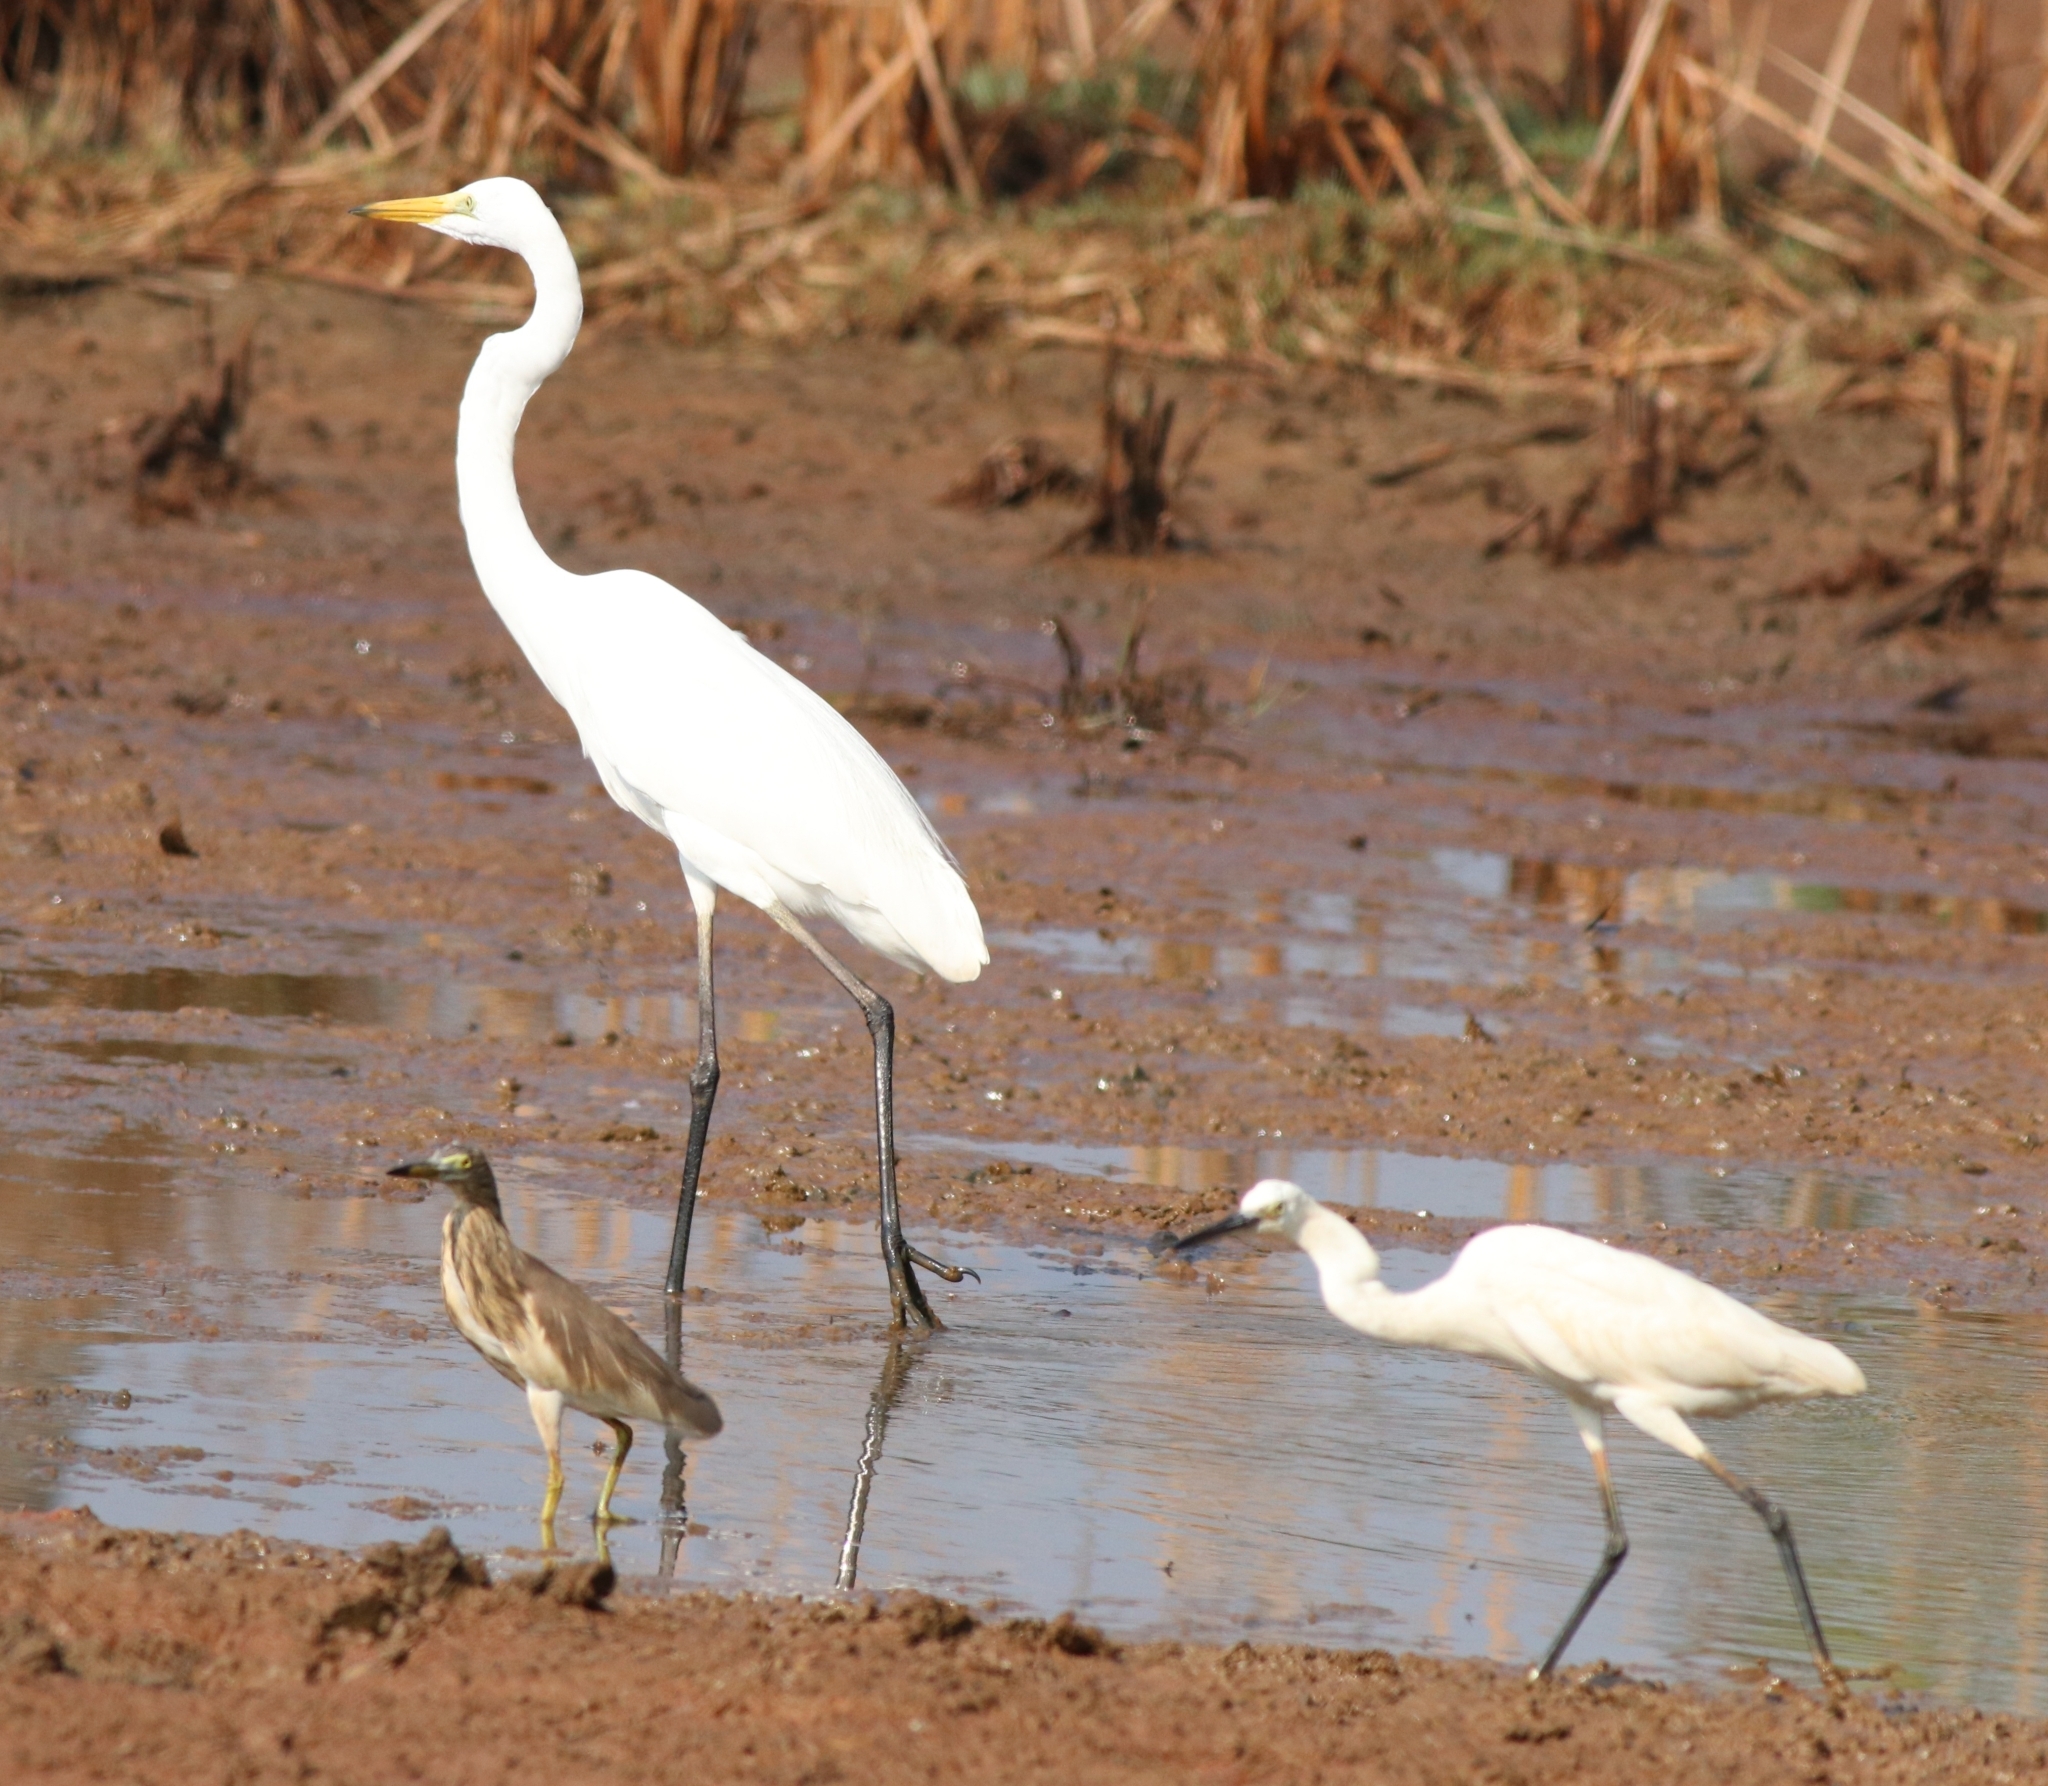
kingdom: Animalia
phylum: Chordata
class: Aves
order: Pelecaniformes
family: Ardeidae
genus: Egretta
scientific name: Egretta garzetta
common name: Little egret
